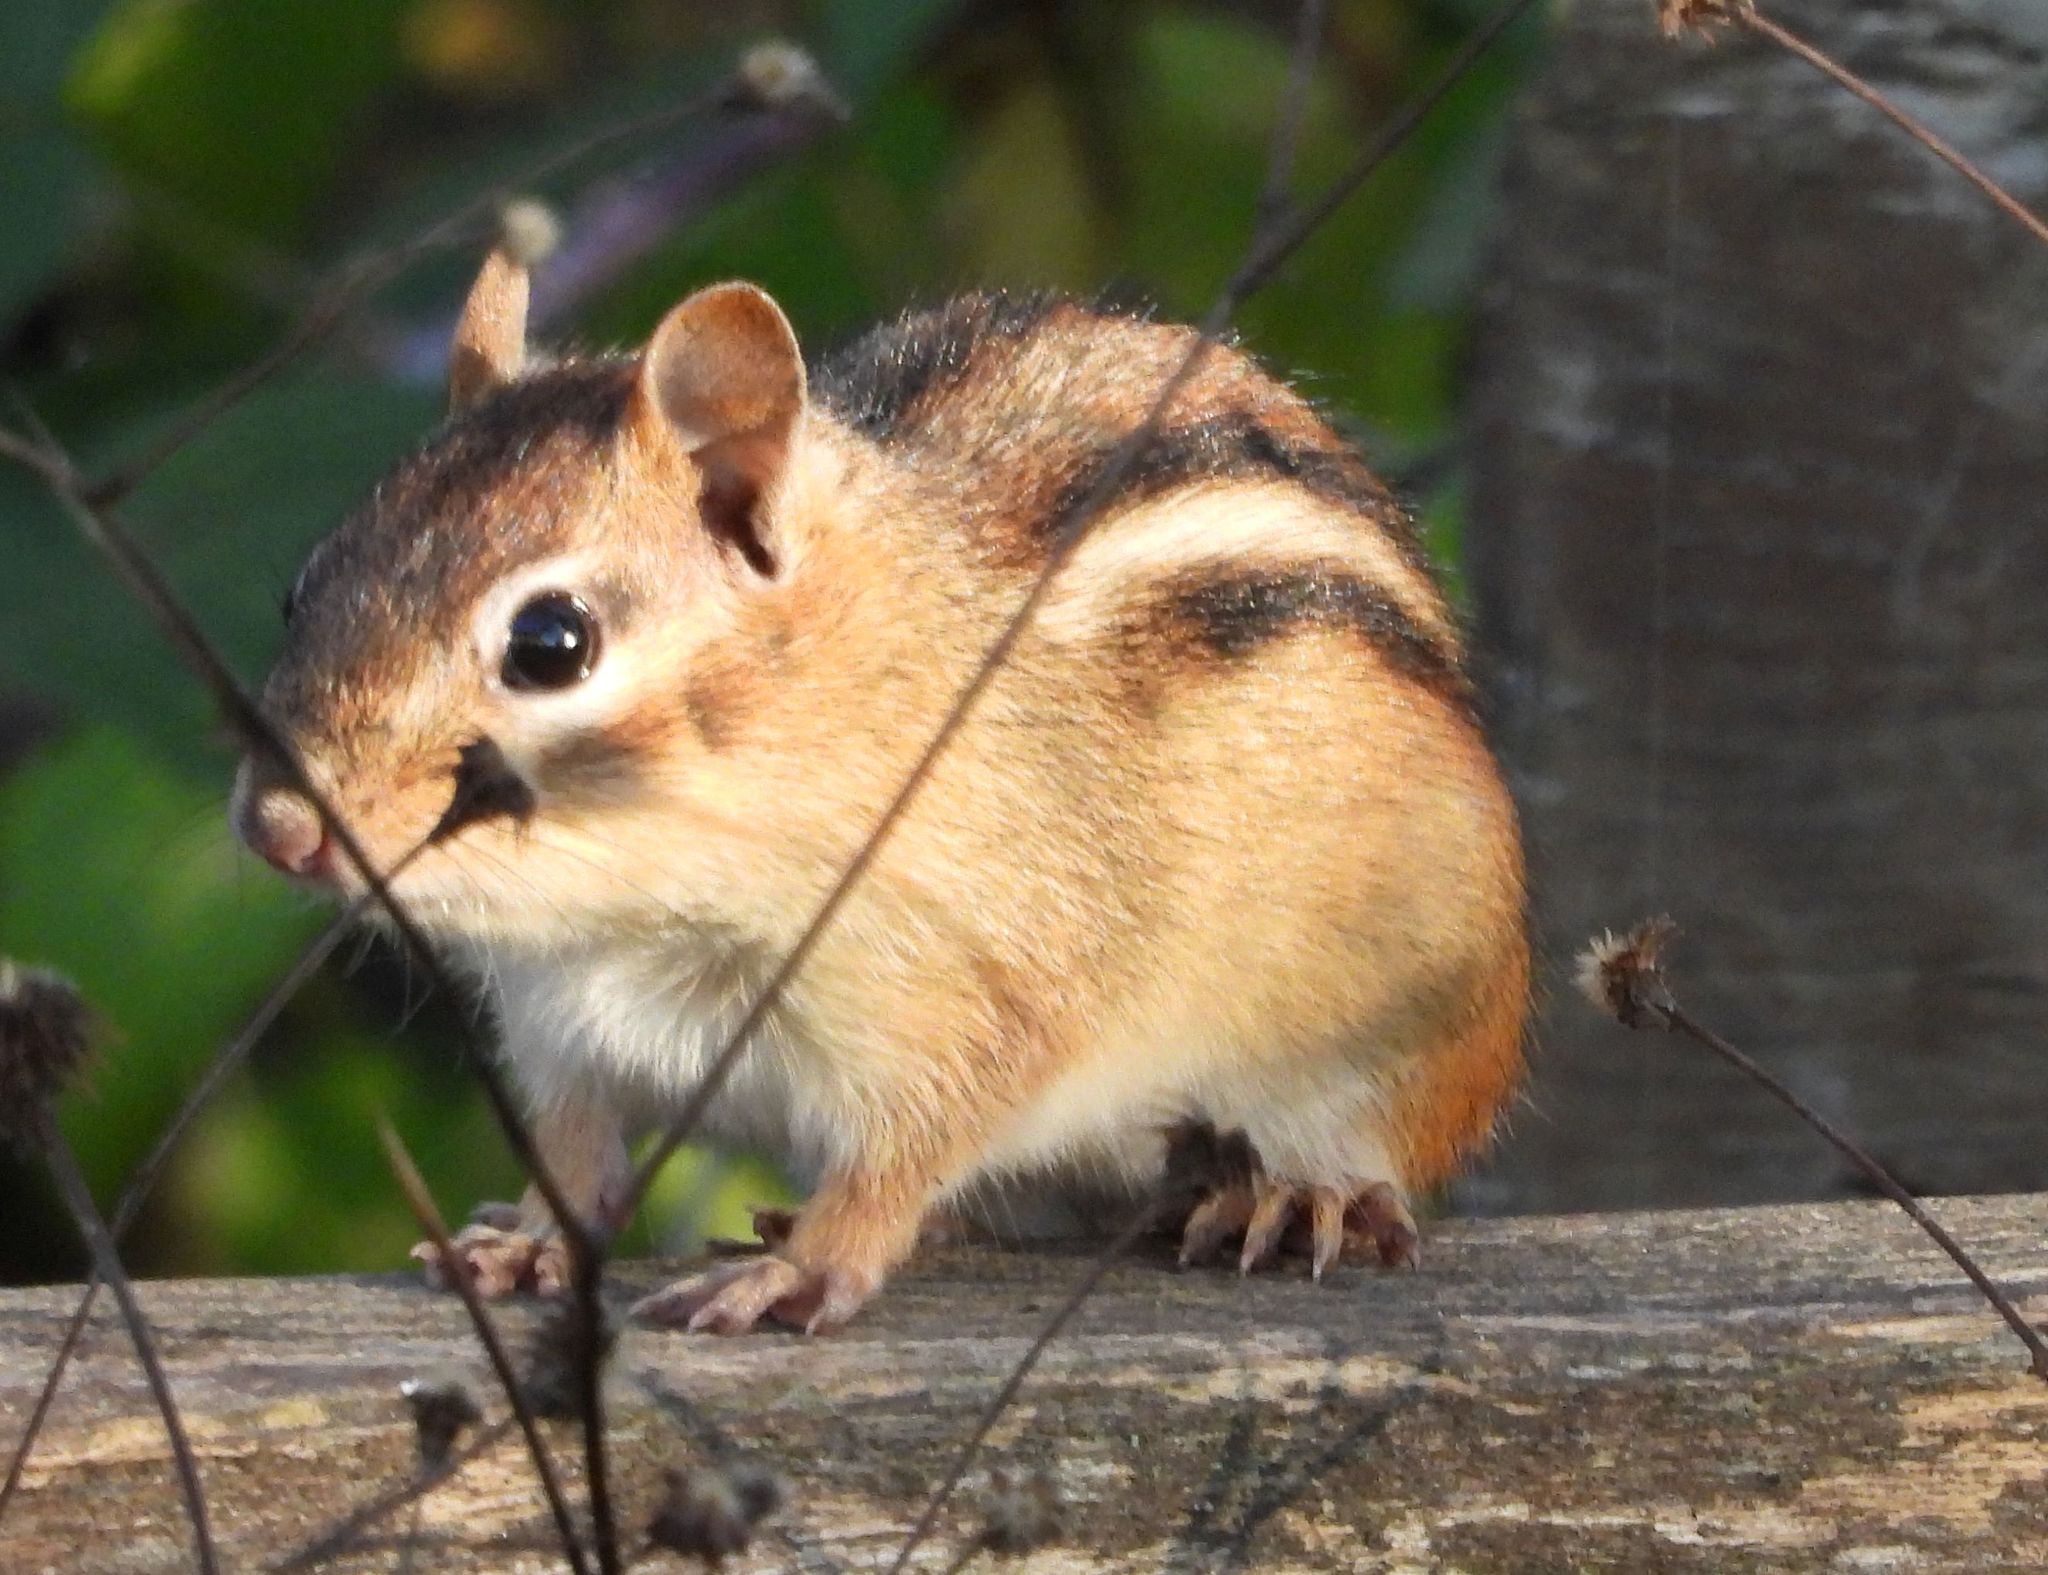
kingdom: Animalia
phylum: Chordata
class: Mammalia
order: Rodentia
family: Sciuridae
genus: Tamias
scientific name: Tamias striatus
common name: Eastern chipmunk
